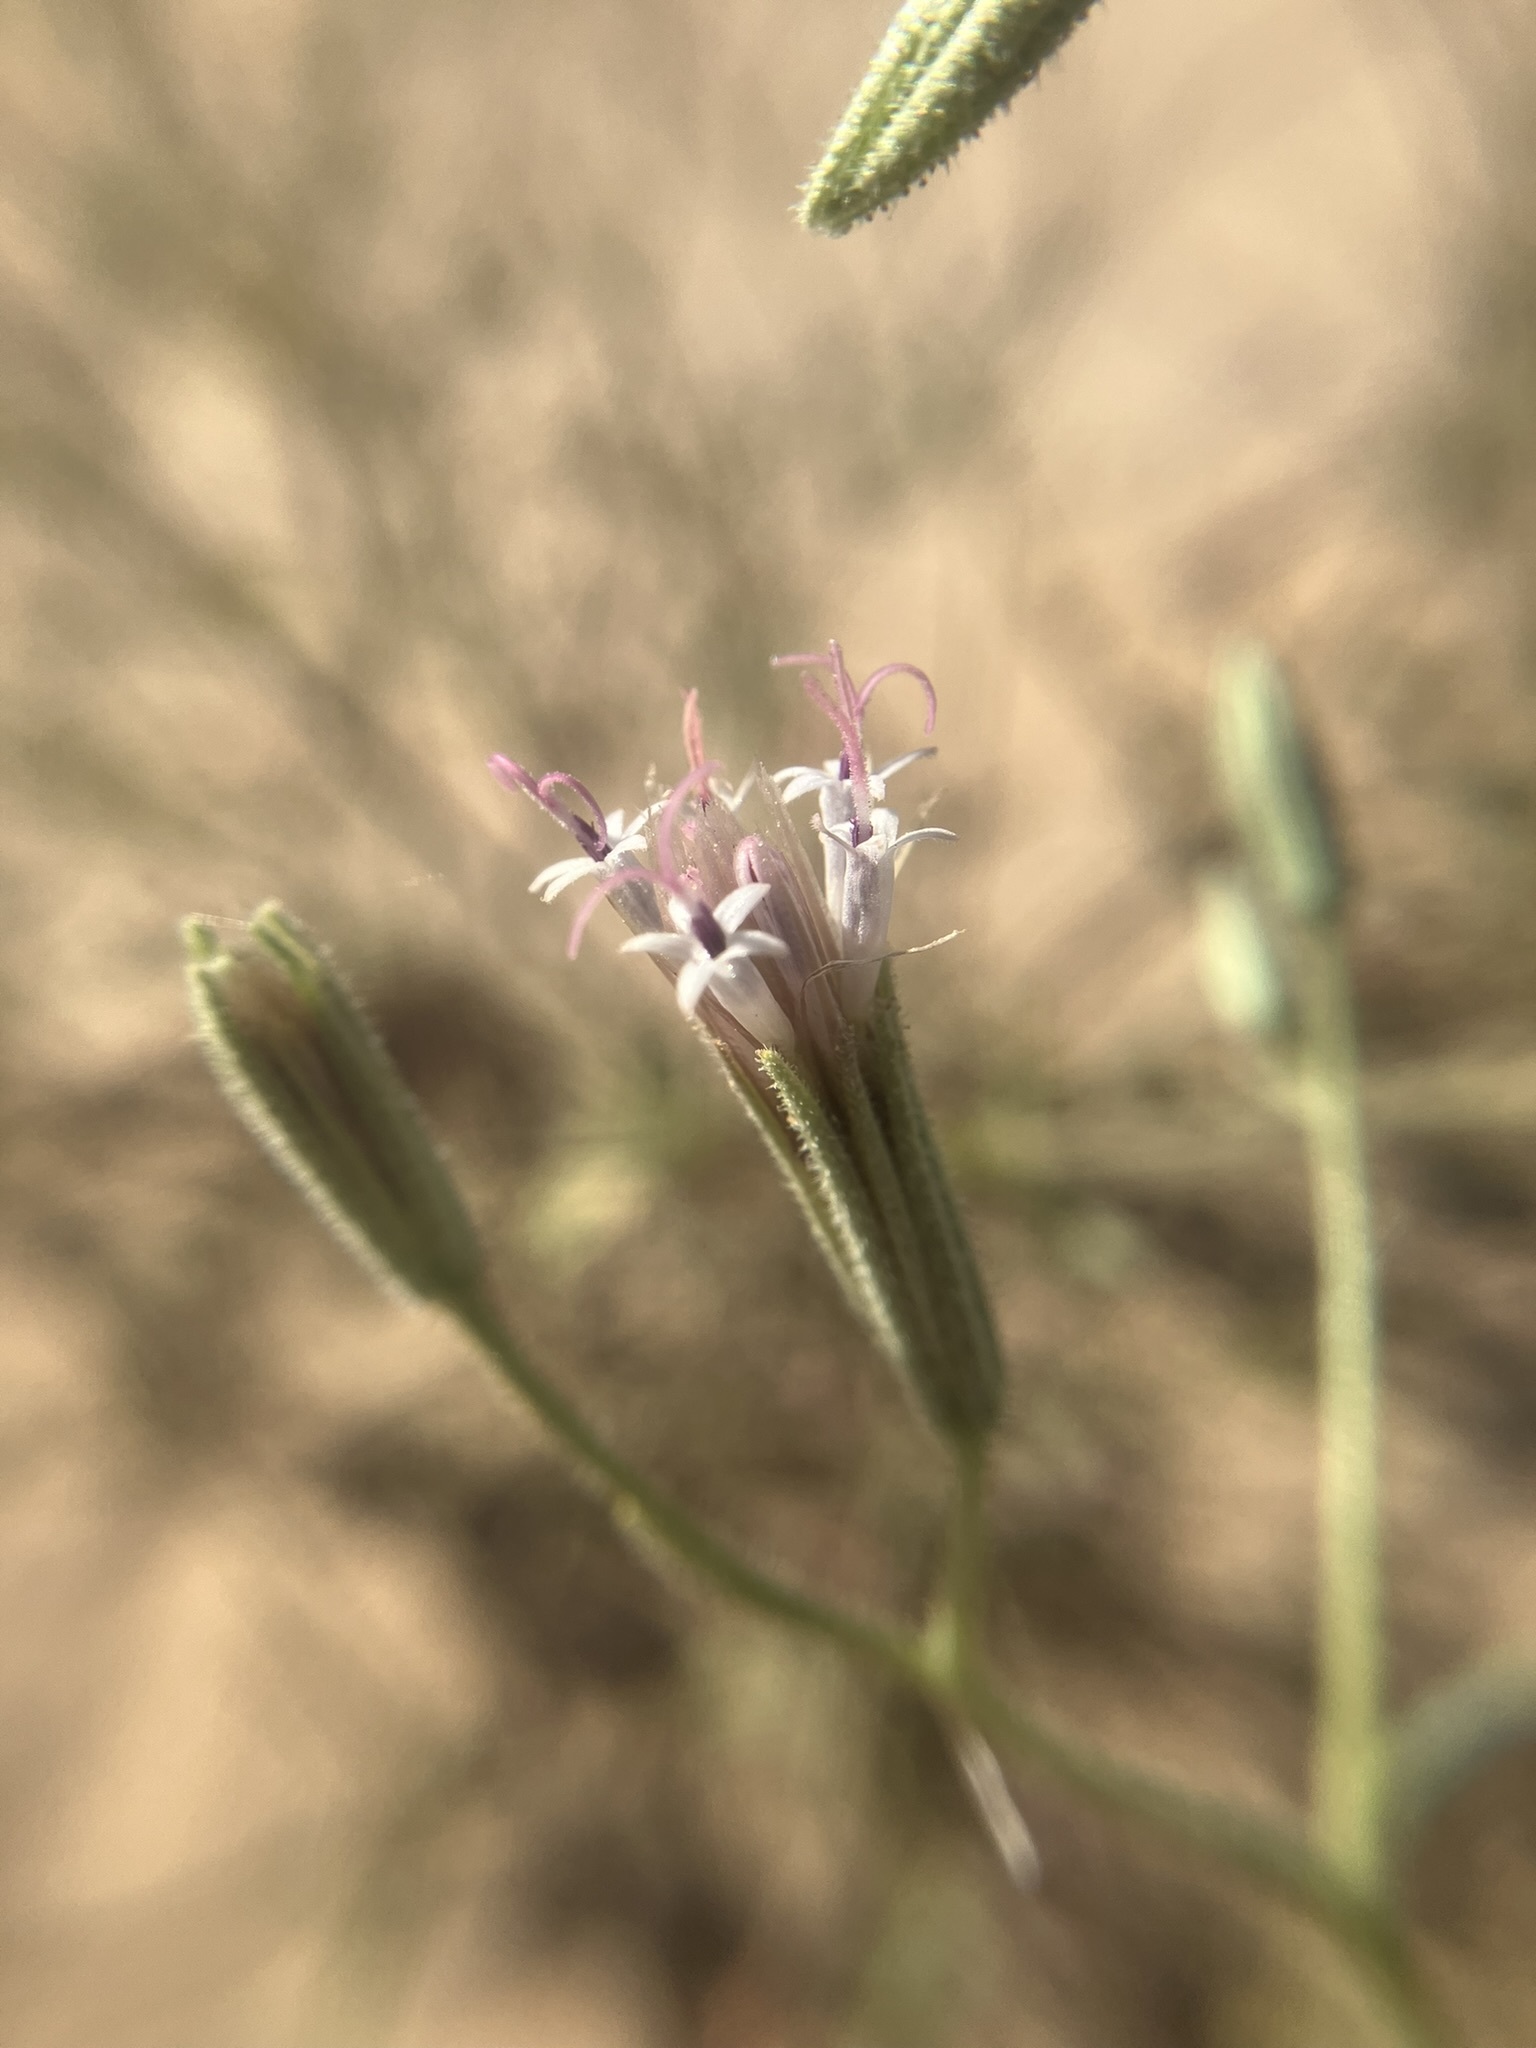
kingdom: Plantae
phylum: Tracheophyta
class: Magnoliopsida
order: Asterales
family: Asteraceae
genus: Palafoxia
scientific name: Palafoxia arida
